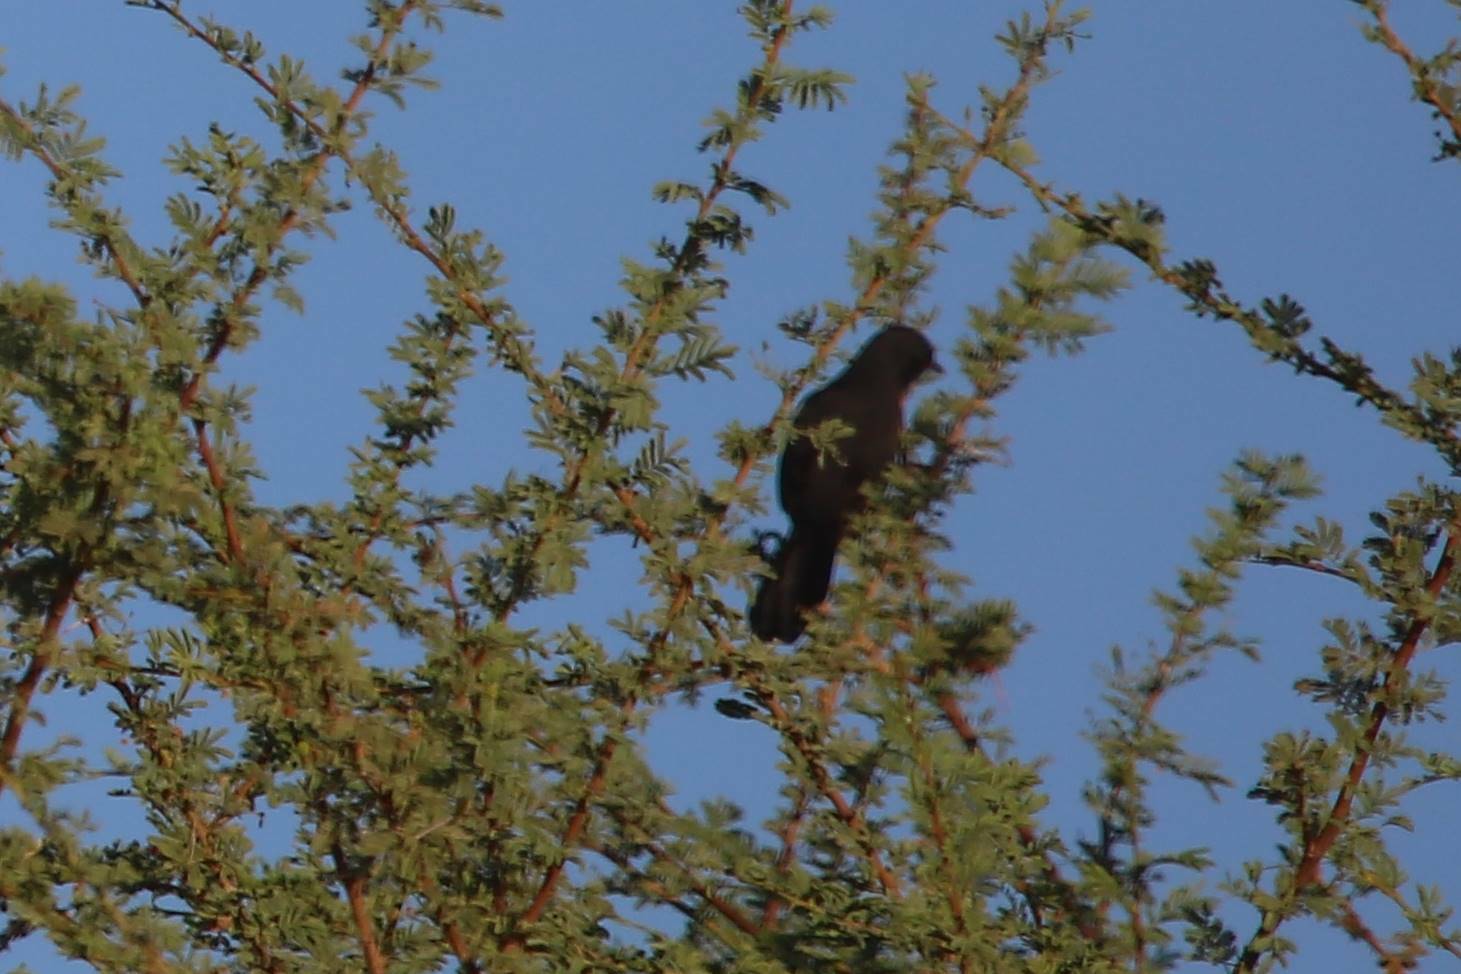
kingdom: Animalia
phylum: Chordata
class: Aves
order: Passeriformes
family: Muscicapidae
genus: Cercotrichas
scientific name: Cercotrichas podobe
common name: Black scrub robin
